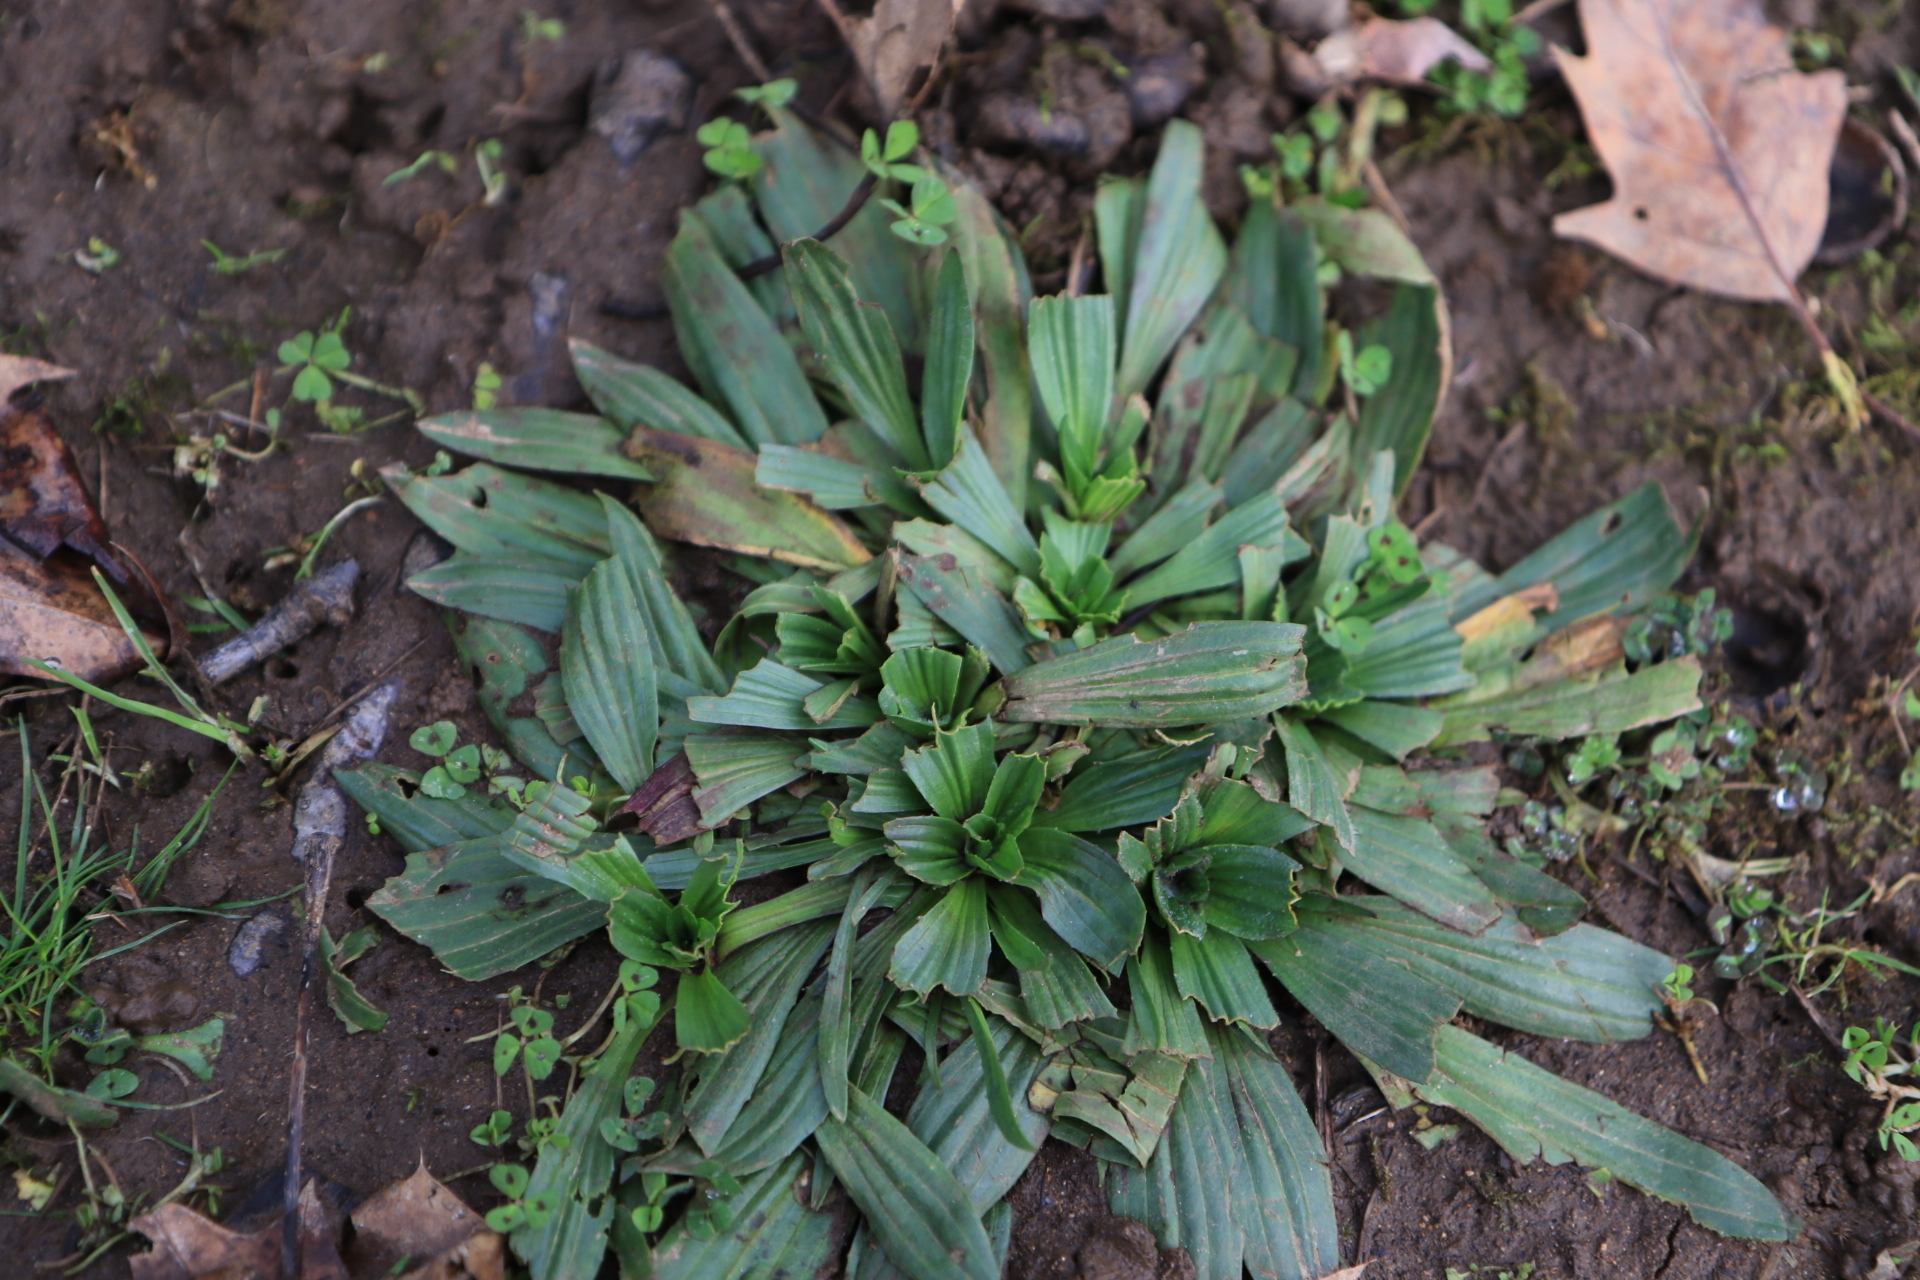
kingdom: Plantae
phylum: Tracheophyta
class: Magnoliopsida
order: Lamiales
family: Plantaginaceae
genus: Plantago
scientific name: Plantago lanceolata
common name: Ribwort plantain
